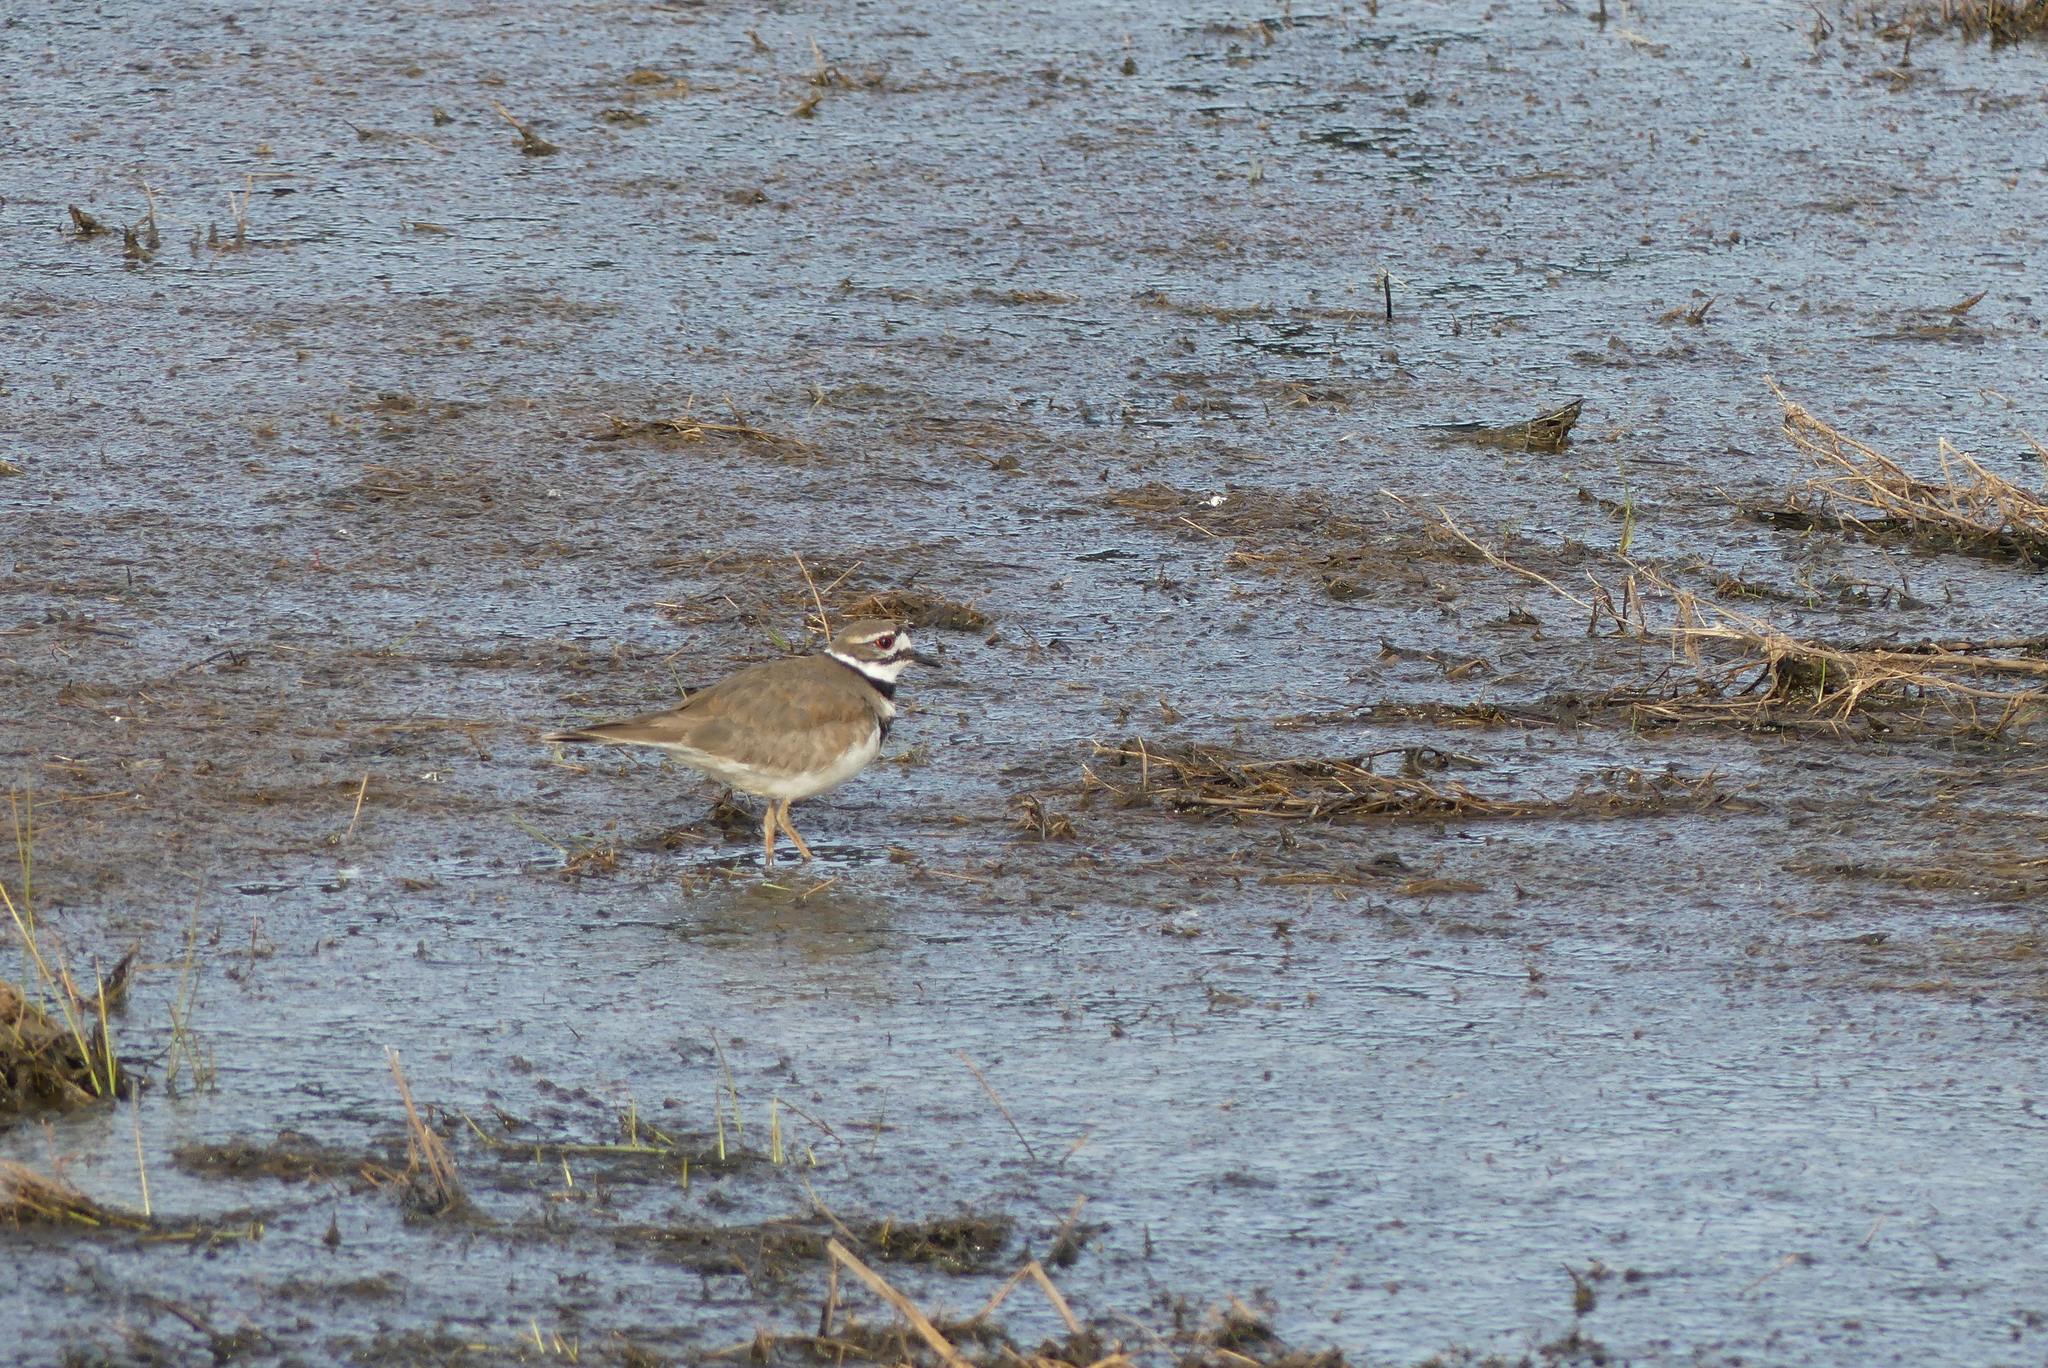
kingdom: Animalia
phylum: Chordata
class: Aves
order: Charadriiformes
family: Charadriidae
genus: Charadrius
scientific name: Charadrius vociferus
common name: Killdeer
